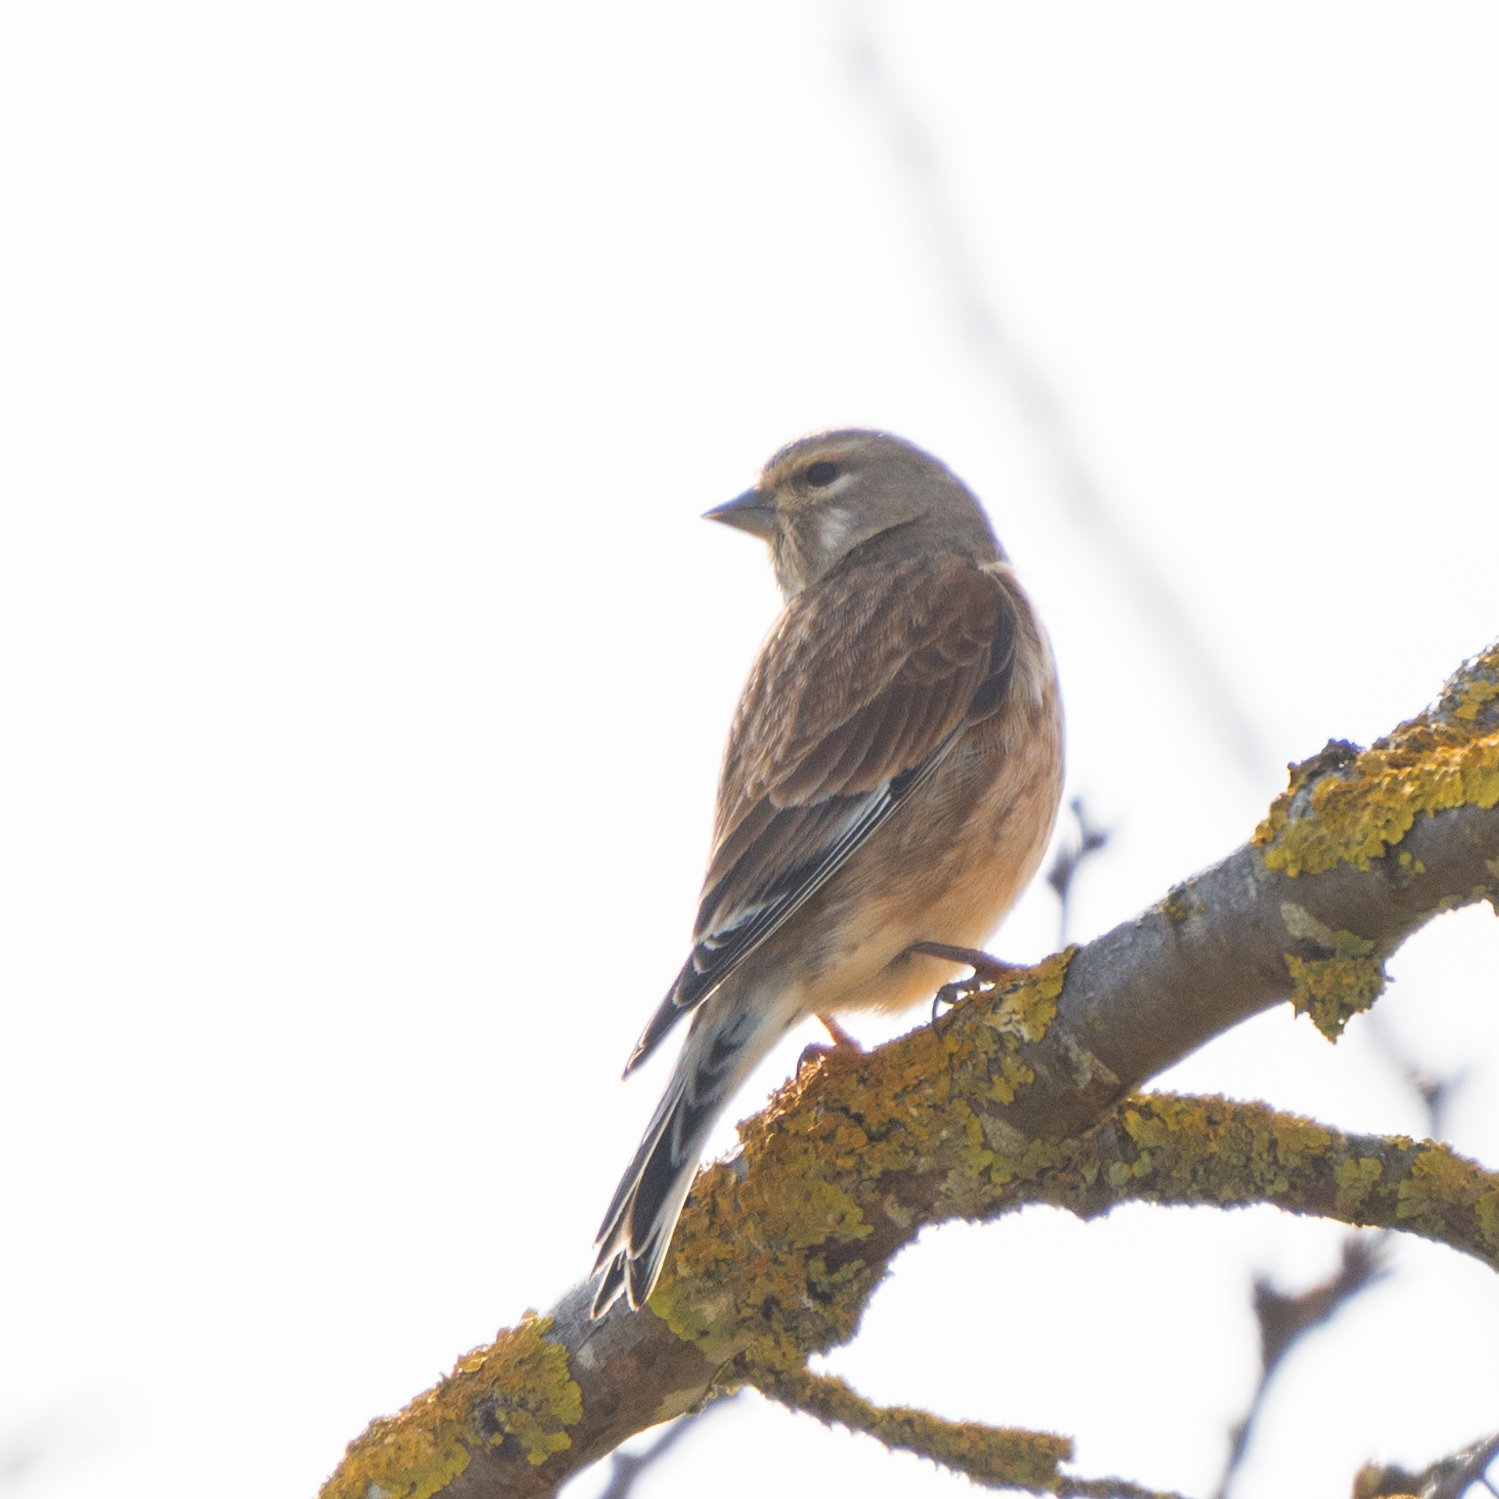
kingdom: Animalia
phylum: Chordata
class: Aves
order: Passeriformes
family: Fringillidae
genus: Linaria
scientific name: Linaria cannabina
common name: Common linnet
